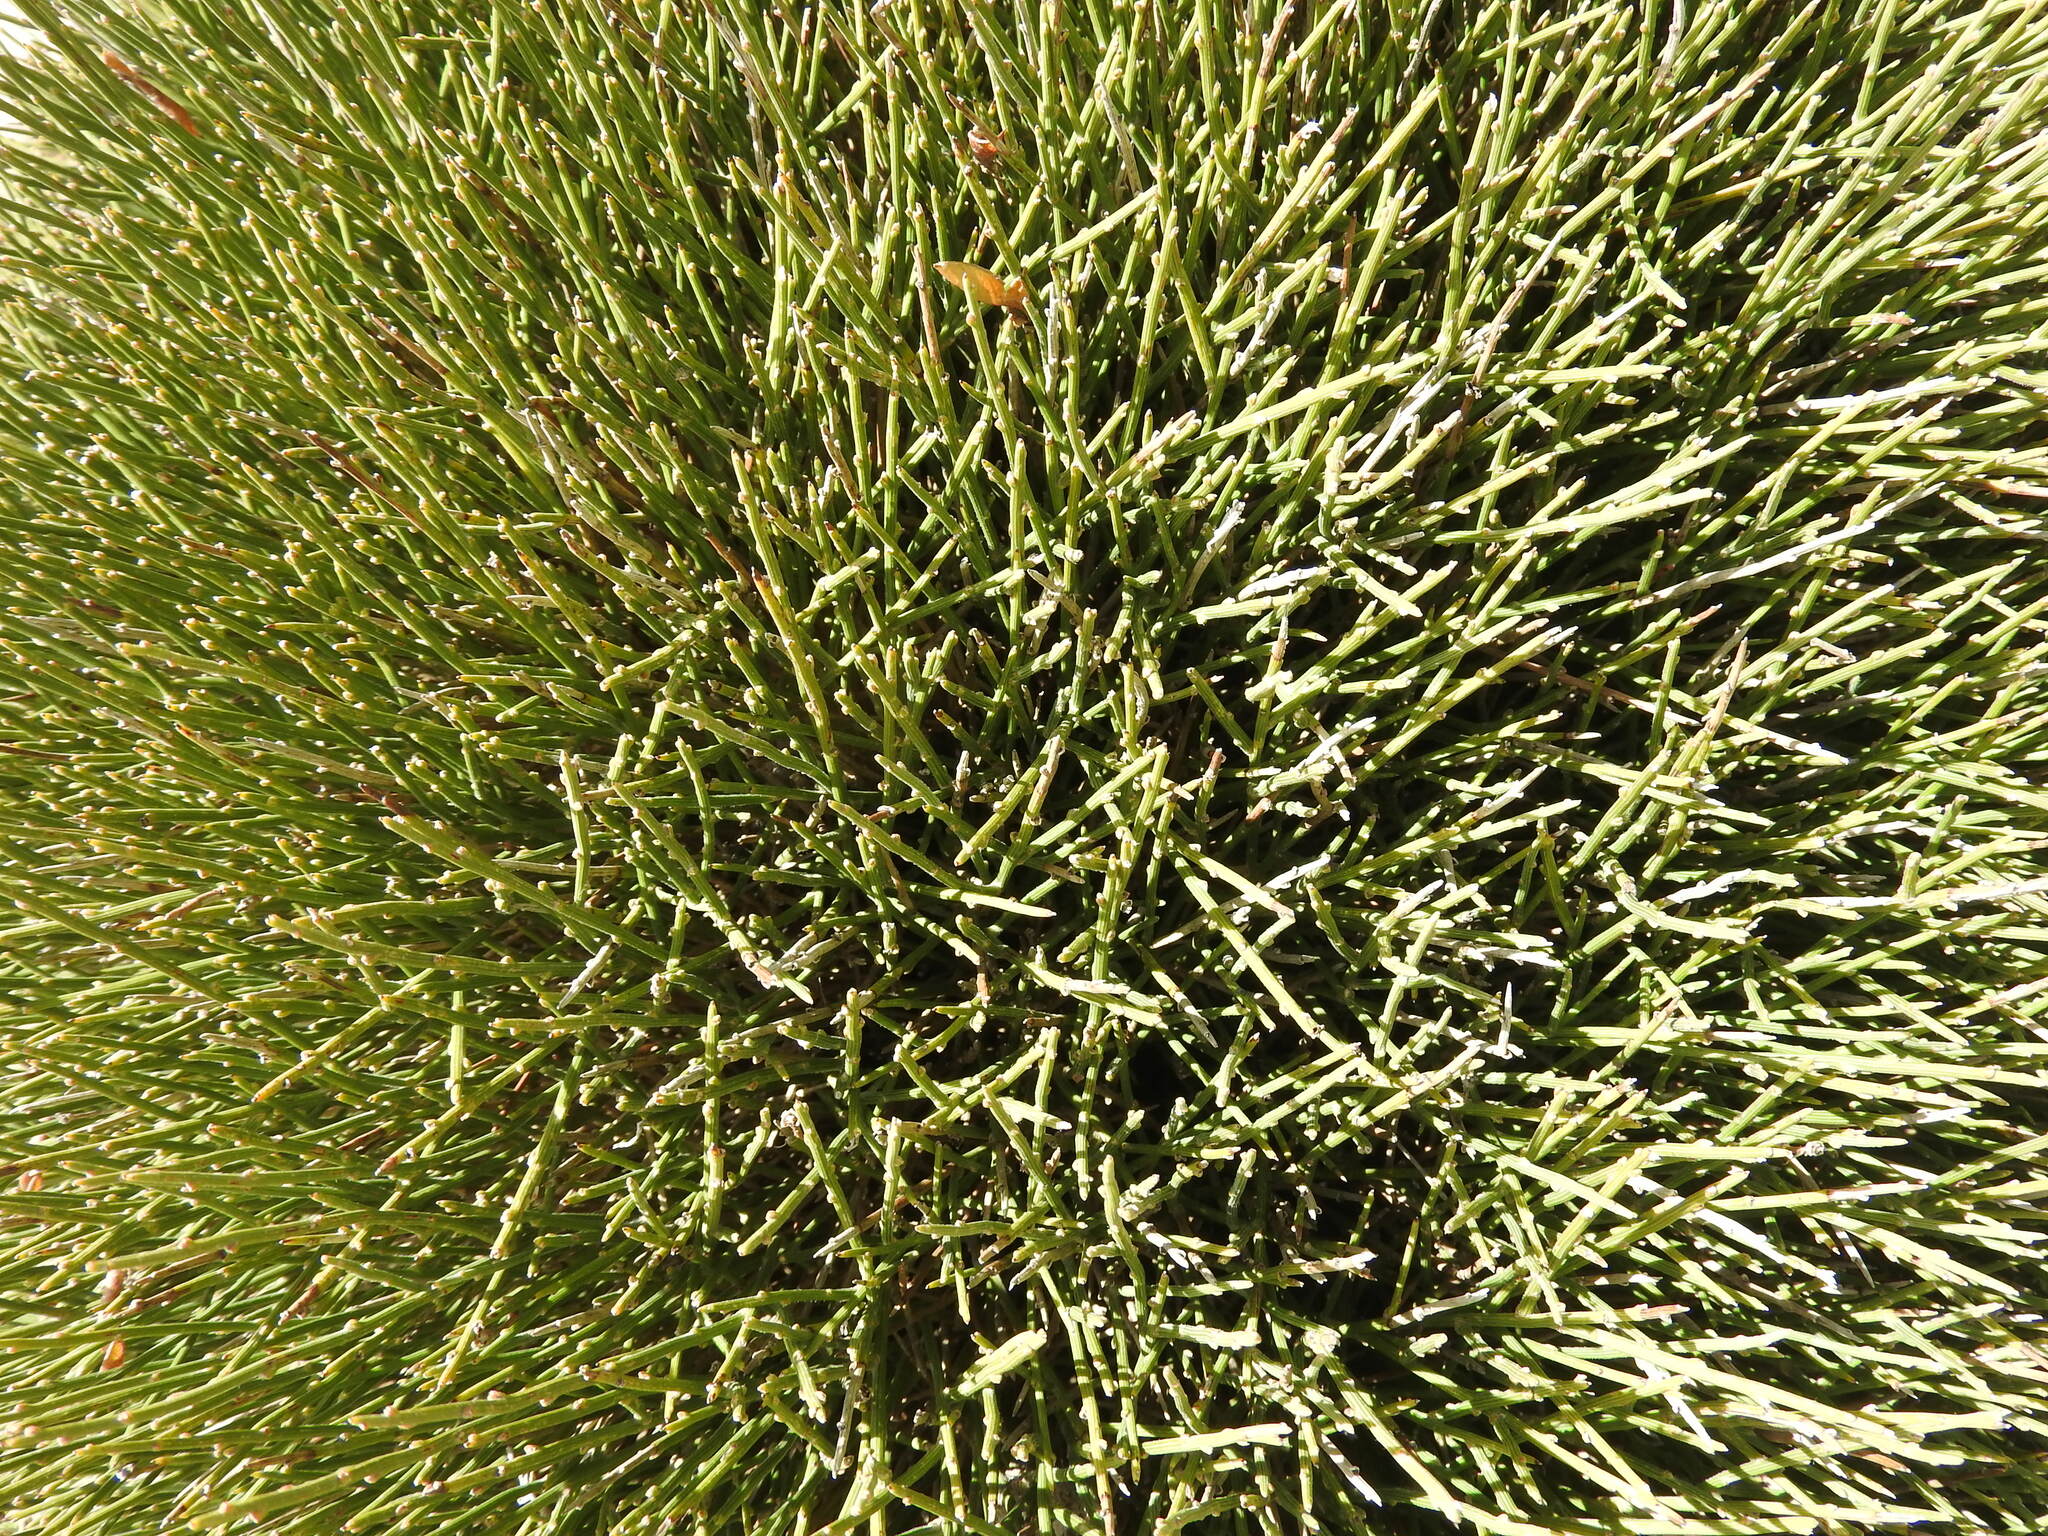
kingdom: Plantae
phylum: Tracheophyta
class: Magnoliopsida
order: Fabales
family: Fabaceae
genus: Erinacea
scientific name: Erinacea anthyllis
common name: Hedgehog-broom
